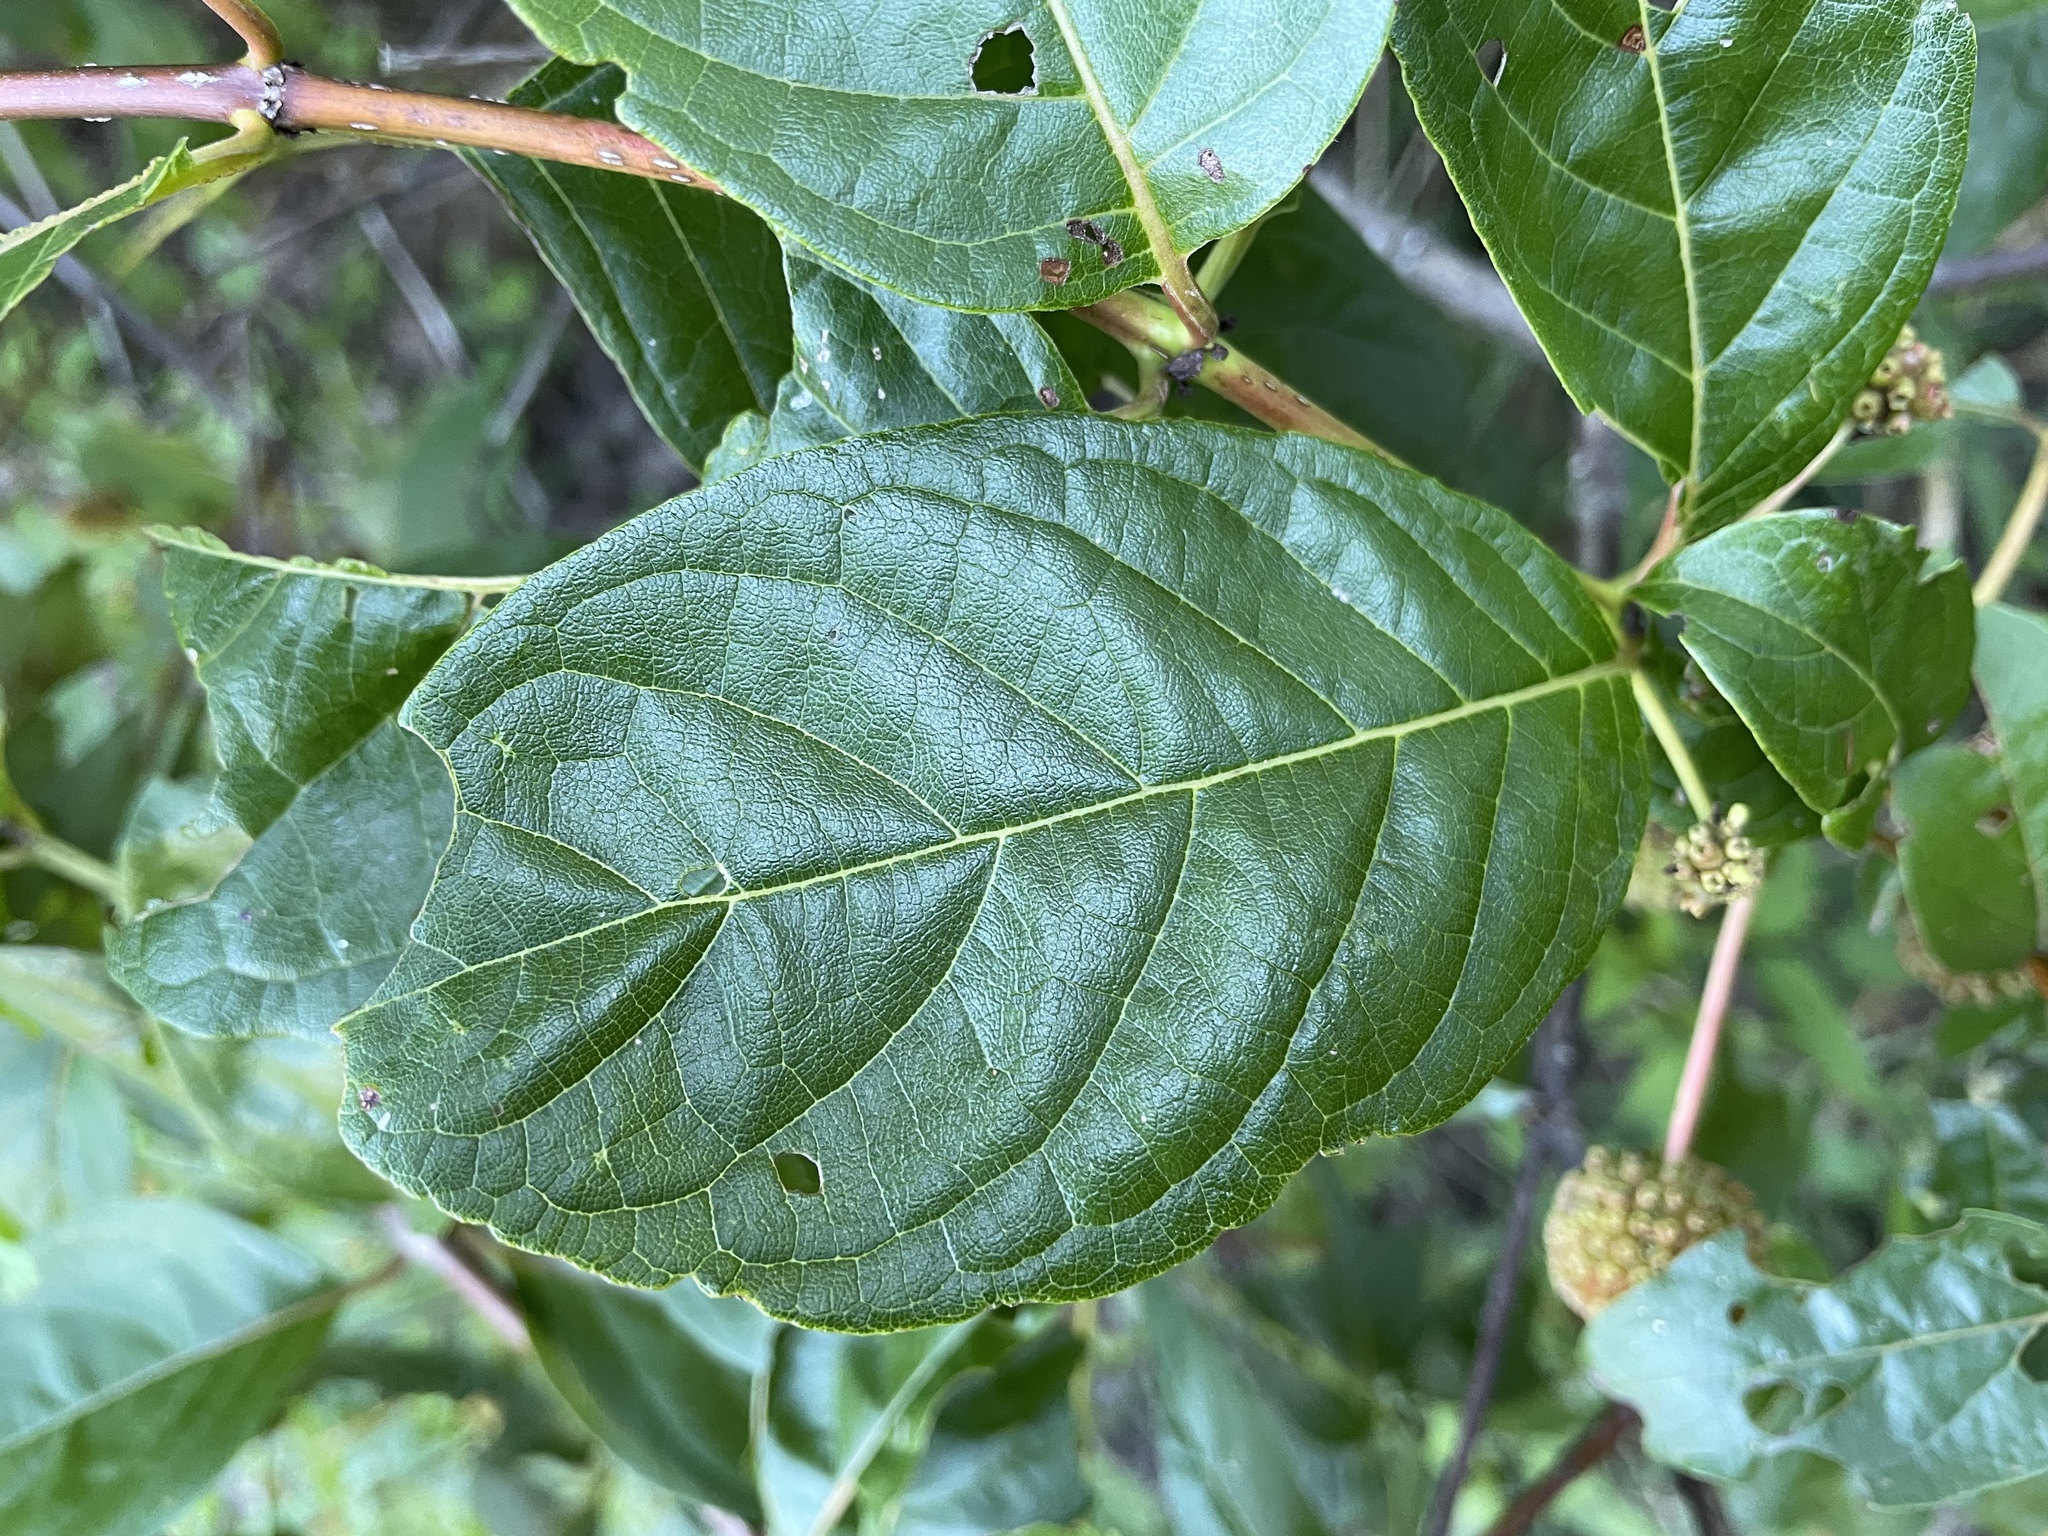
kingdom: Plantae
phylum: Tracheophyta
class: Magnoliopsida
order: Gentianales
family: Rubiaceae
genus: Cephalanthus
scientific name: Cephalanthus occidentalis
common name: Button-willow
